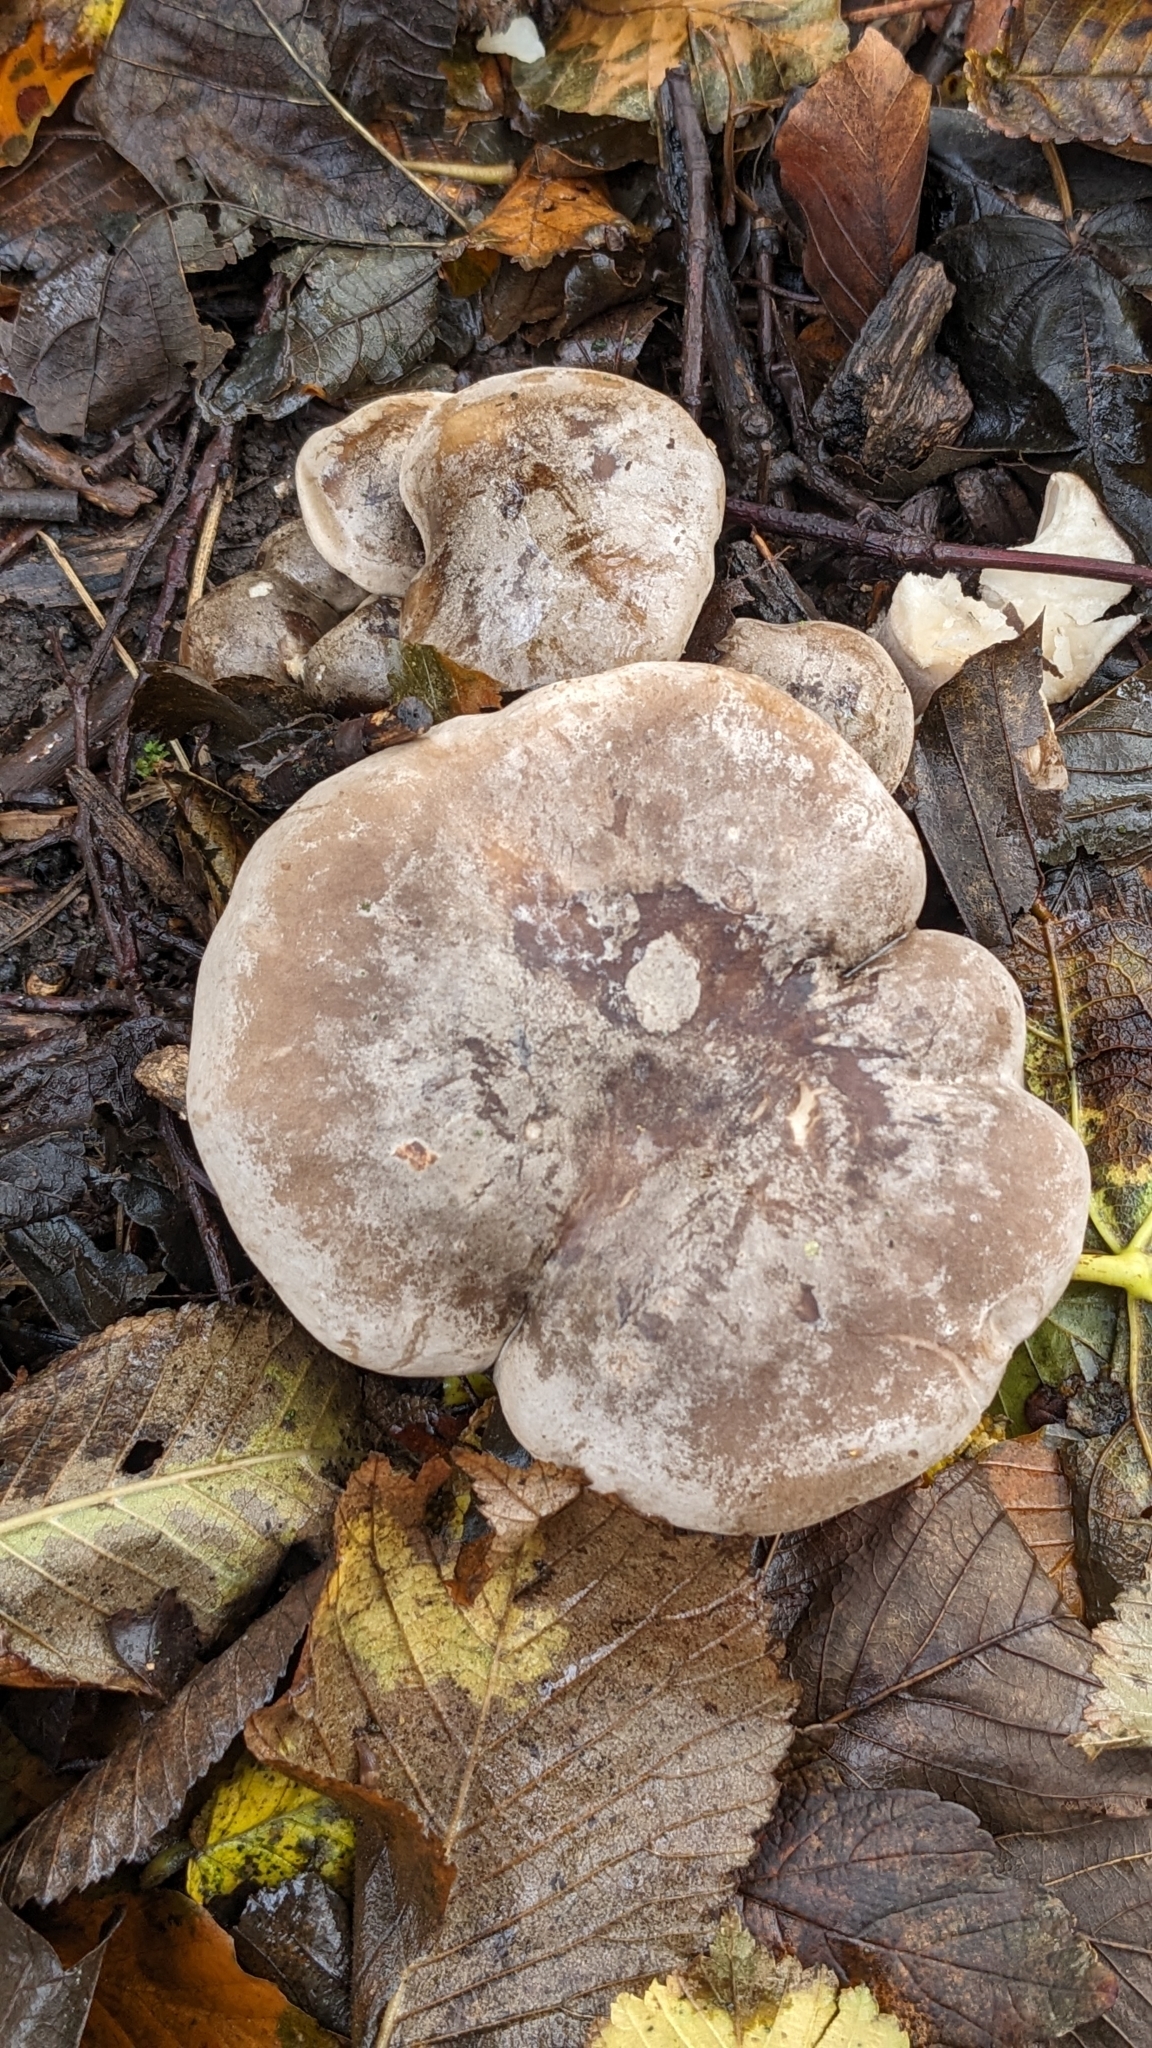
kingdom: Fungi
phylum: Basidiomycota
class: Agaricomycetes
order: Agaricales
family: Tricholomataceae
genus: Clitocybe
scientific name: Clitocybe nebularis
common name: Clouded agaric
